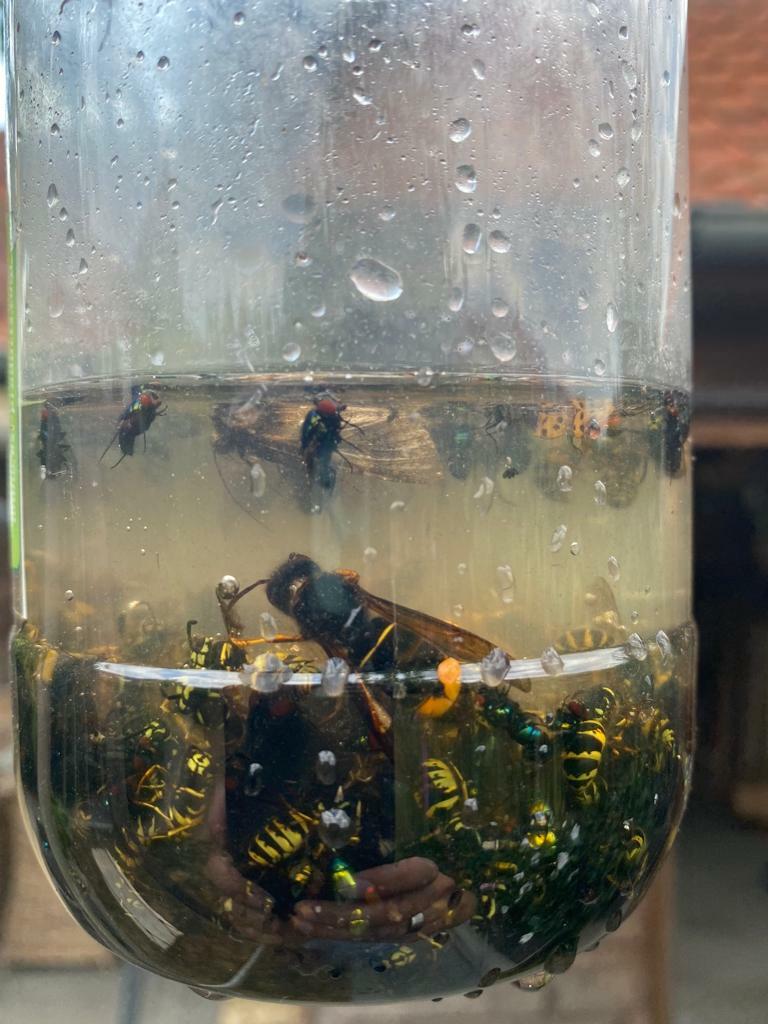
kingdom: Animalia
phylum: Arthropoda
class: Insecta
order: Hymenoptera
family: Vespidae
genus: Vespa
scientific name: Vespa velutina
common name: Asian hornet
